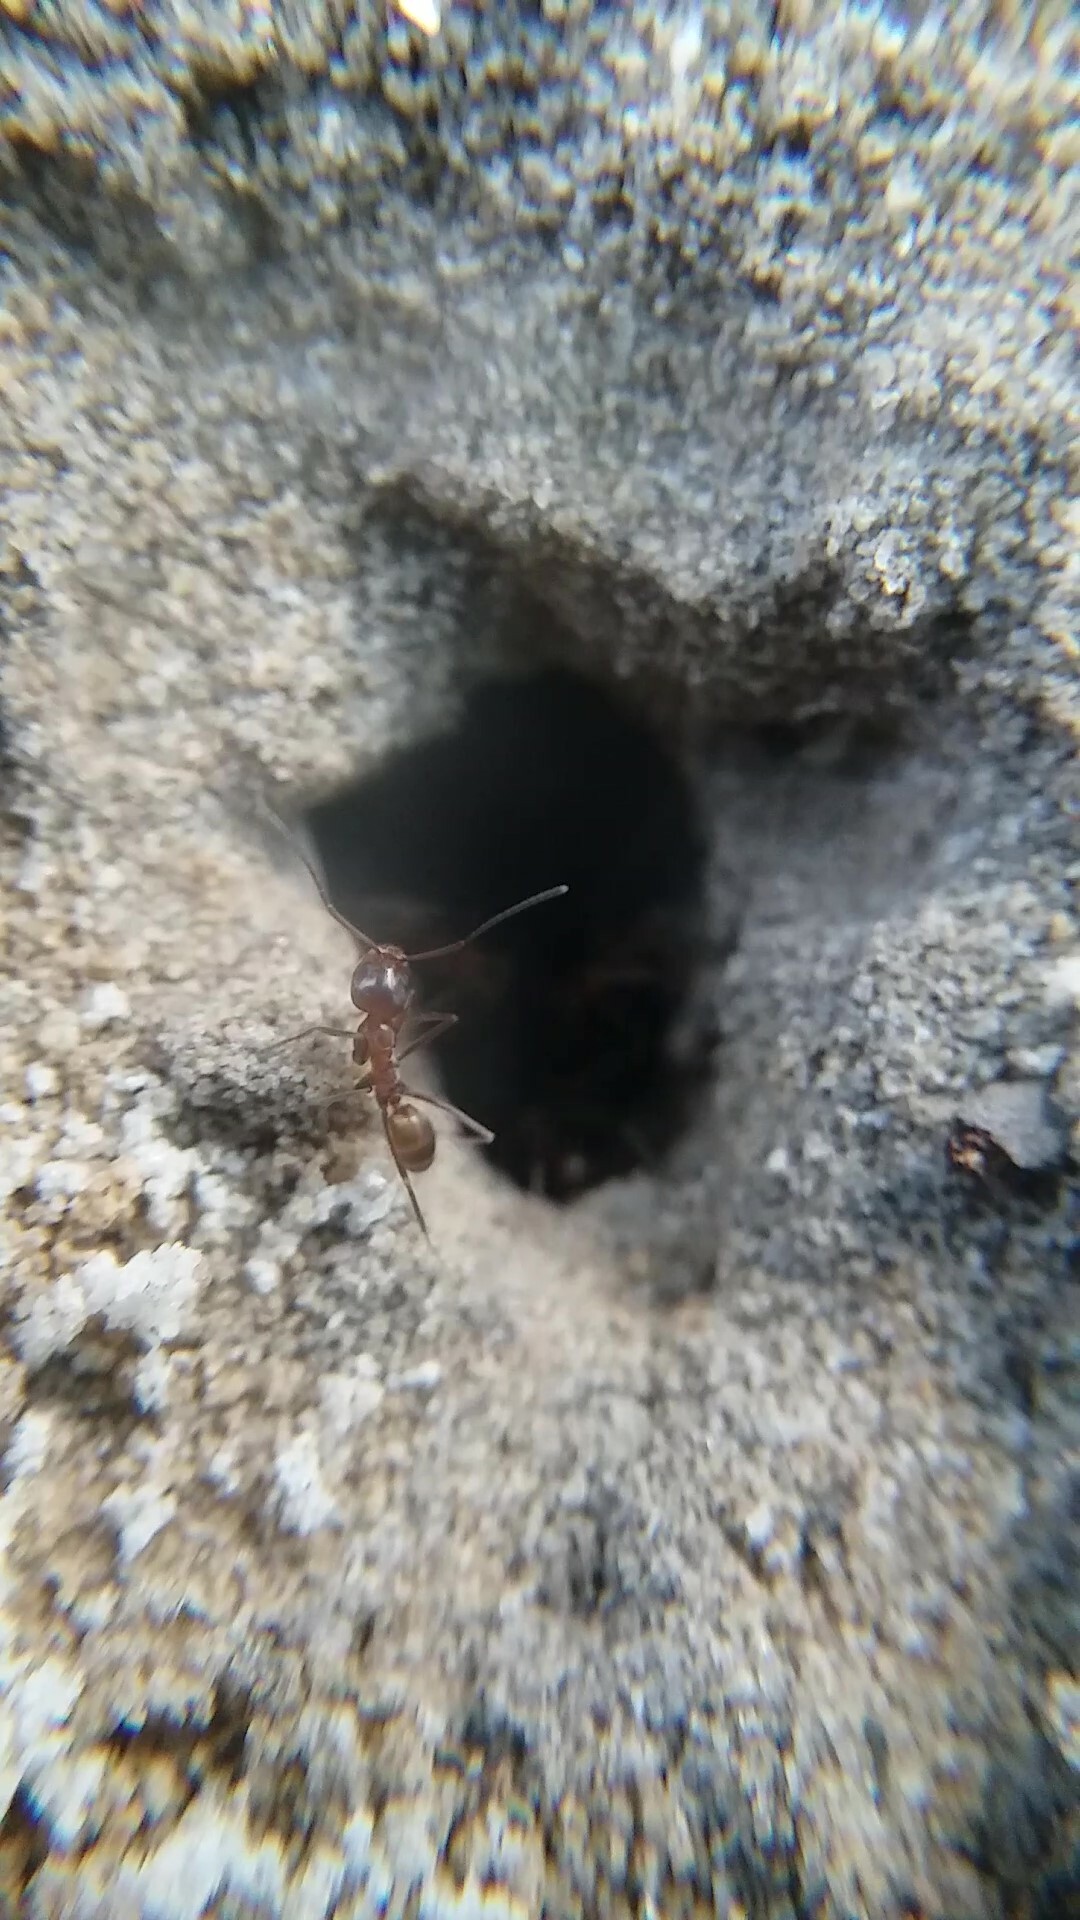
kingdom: Animalia
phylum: Arthropoda
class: Insecta
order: Hymenoptera
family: Formicidae
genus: Dorymyrmex
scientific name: Dorymyrmex bureni
